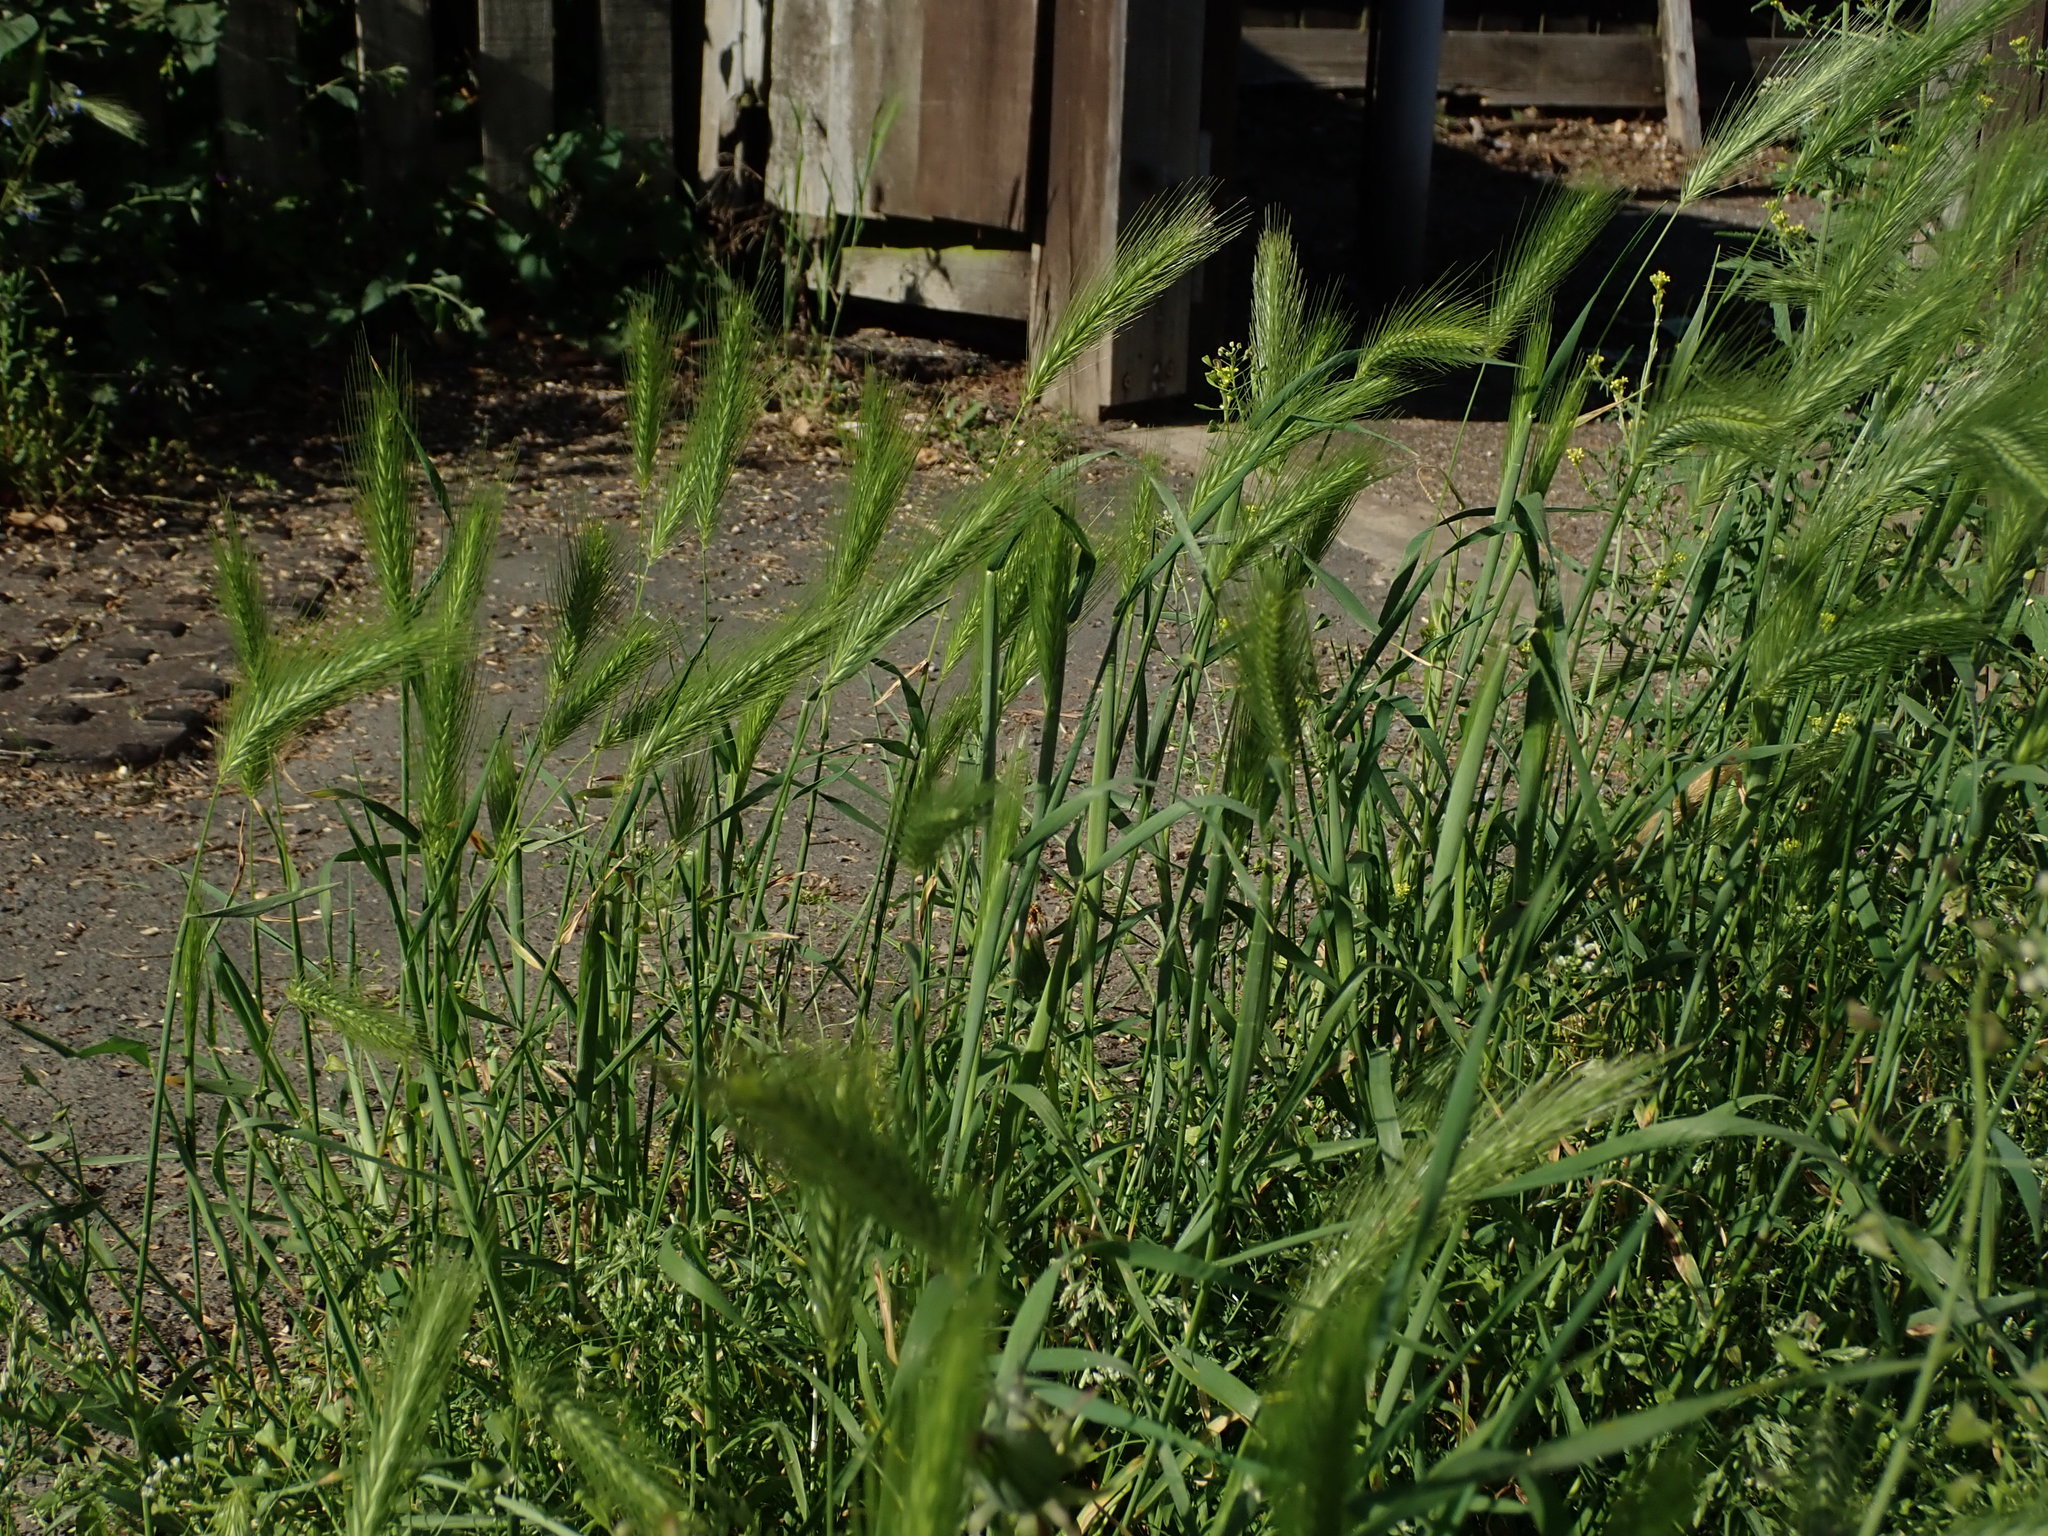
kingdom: Plantae
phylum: Tracheophyta
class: Liliopsida
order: Poales
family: Poaceae
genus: Hordeum
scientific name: Hordeum murinum
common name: Wall barley
